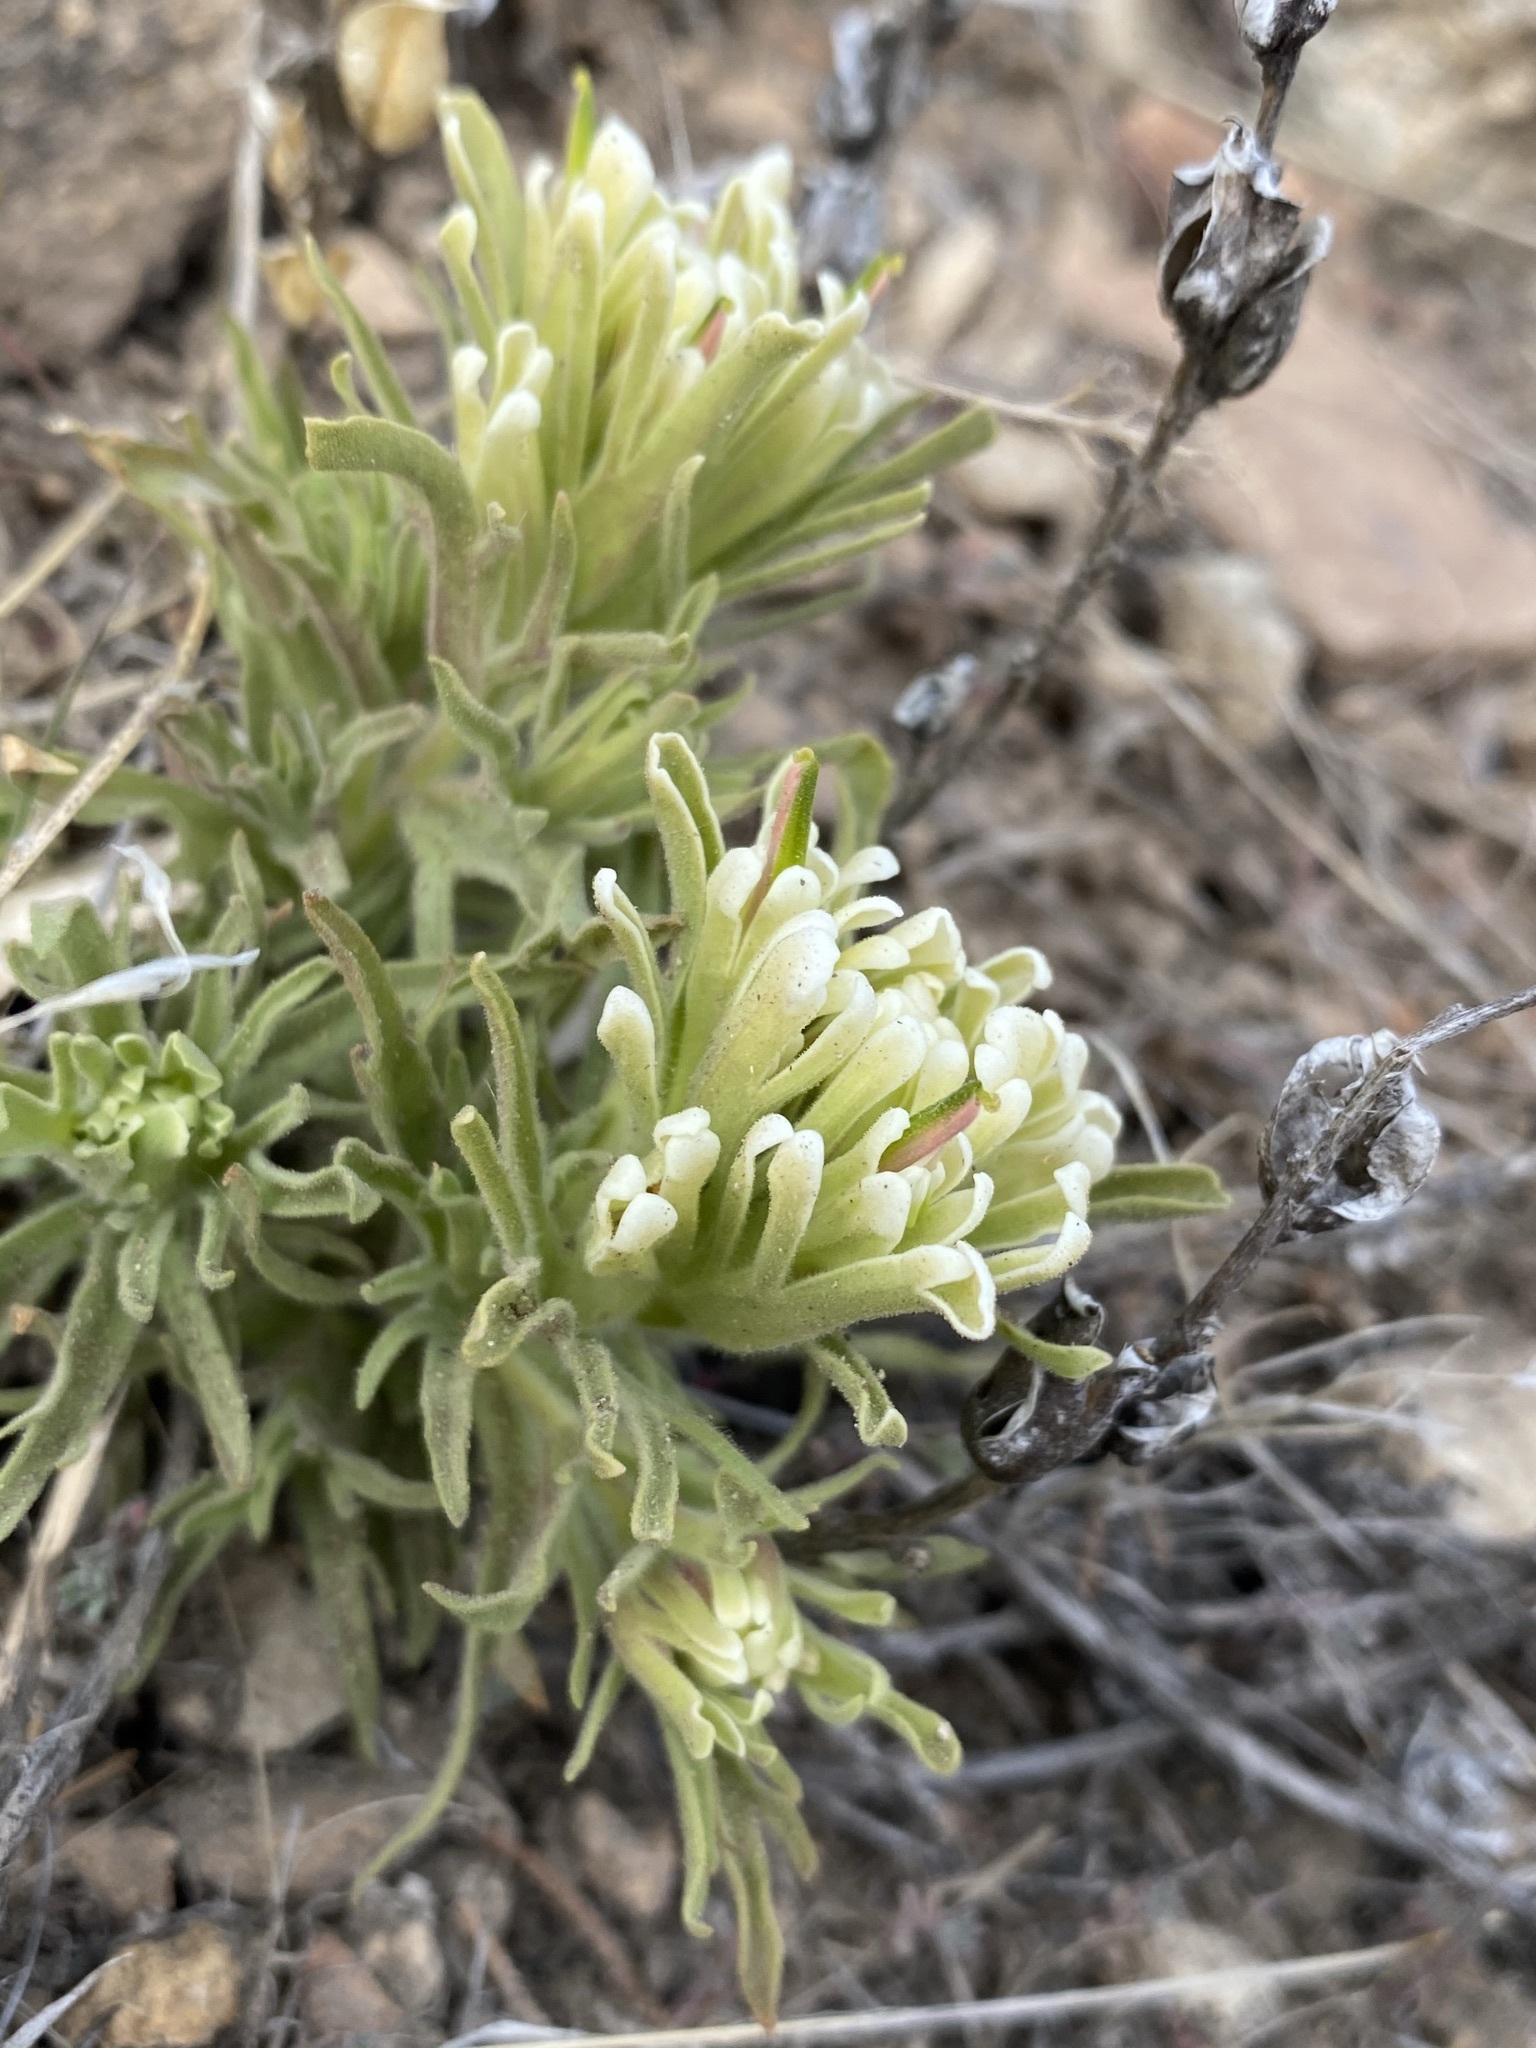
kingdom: Plantae
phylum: Tracheophyta
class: Magnoliopsida
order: Lamiales
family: Orobanchaceae
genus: Castilleja
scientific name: Castilleja xanthotricha
